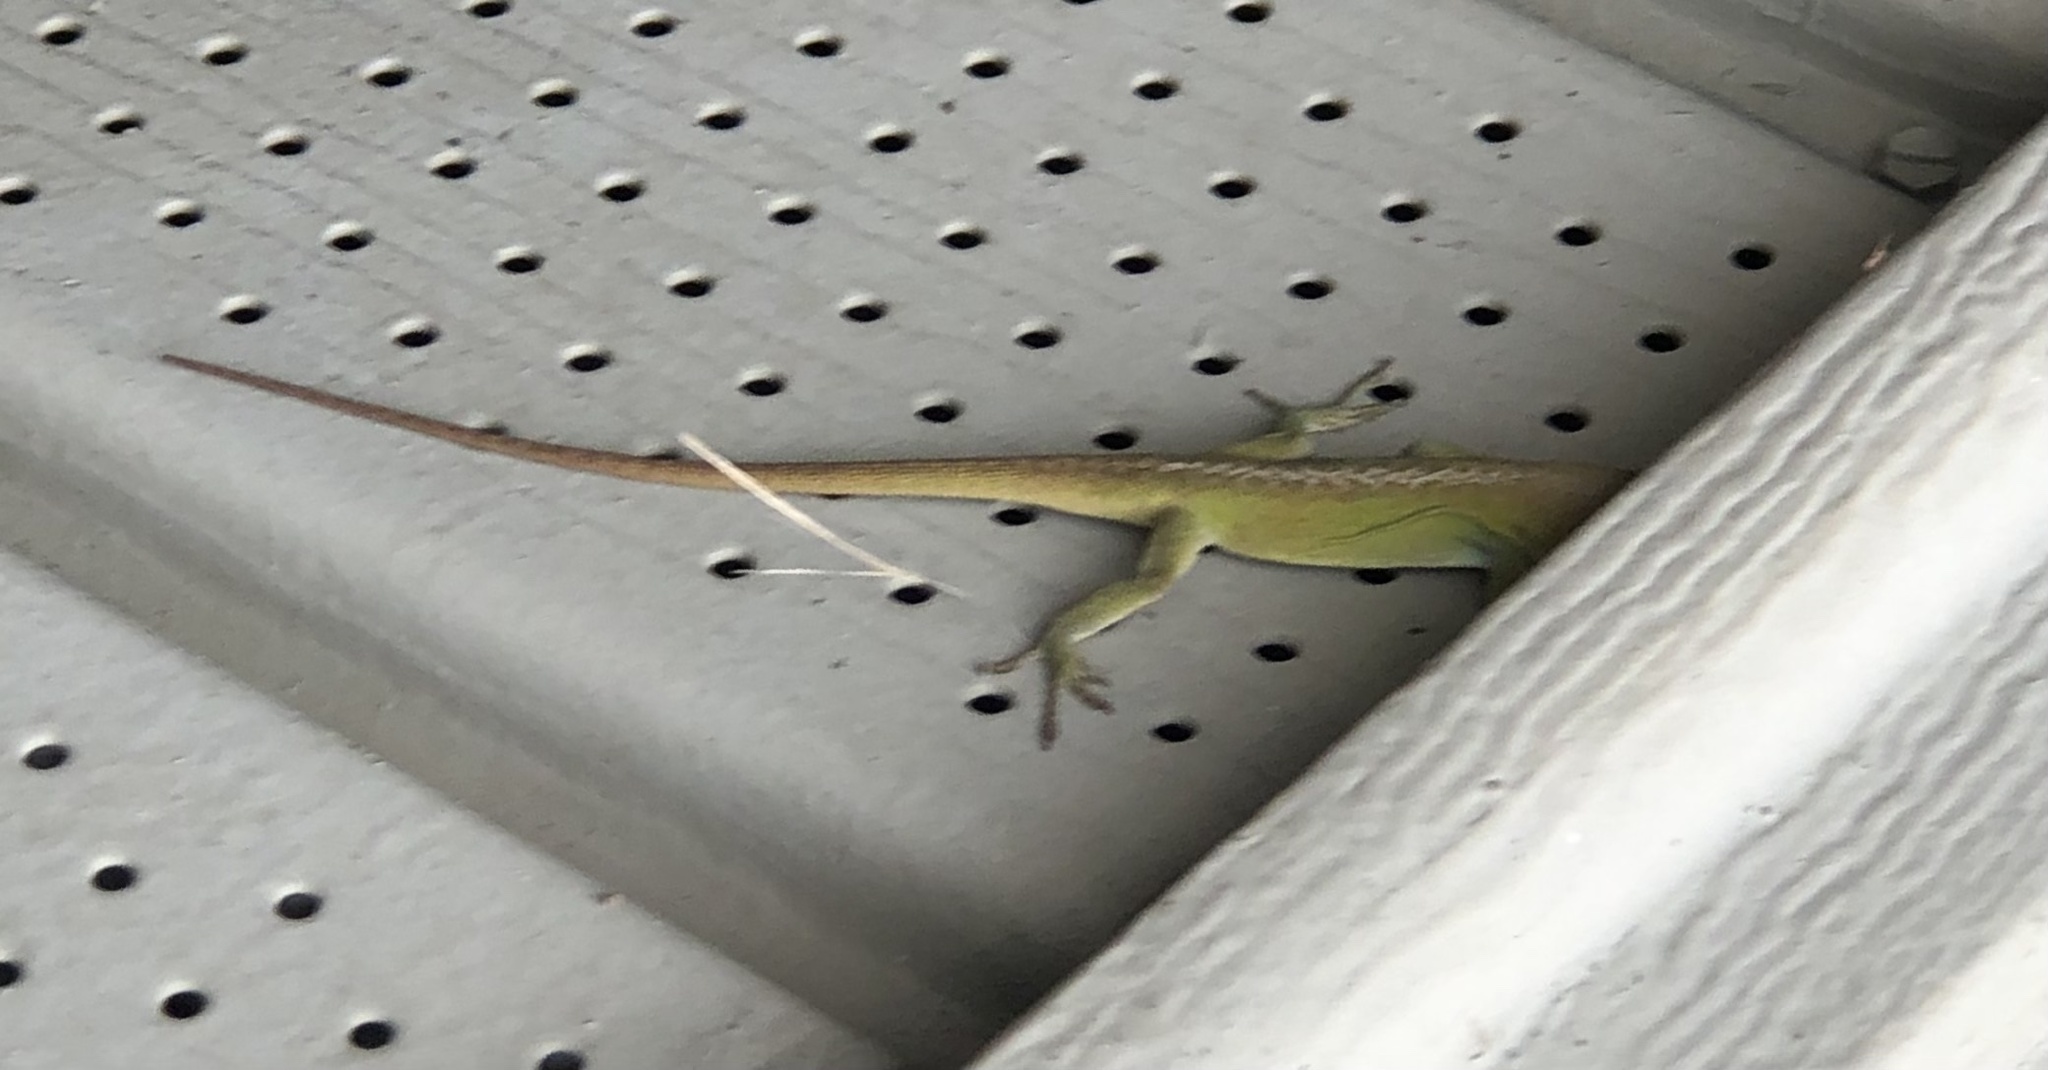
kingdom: Animalia
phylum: Chordata
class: Squamata
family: Dactyloidae
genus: Anolis
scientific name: Anolis carolinensis
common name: Green anole
